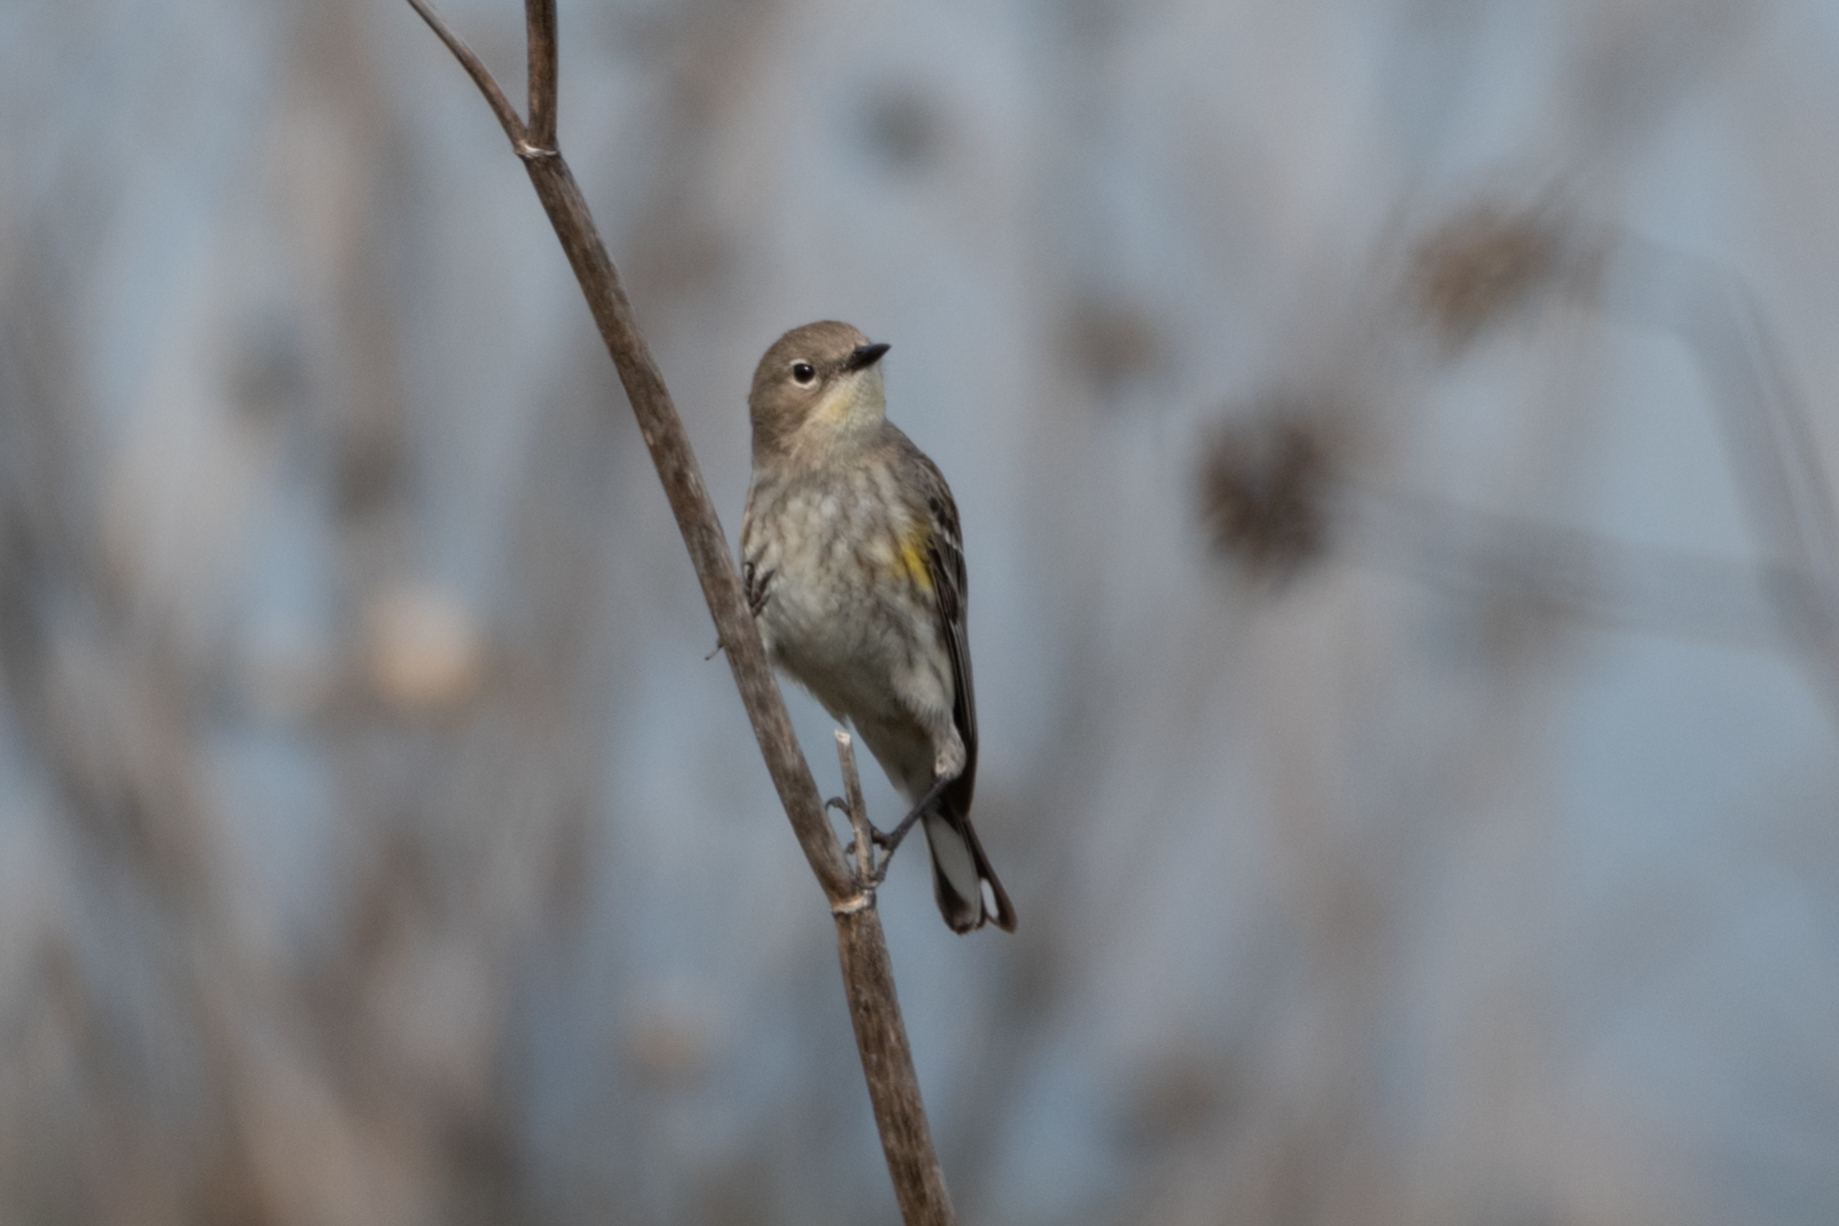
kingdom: Animalia
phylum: Chordata
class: Aves
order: Passeriformes
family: Parulidae
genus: Setophaga
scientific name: Setophaga coronata
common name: Myrtle warbler
